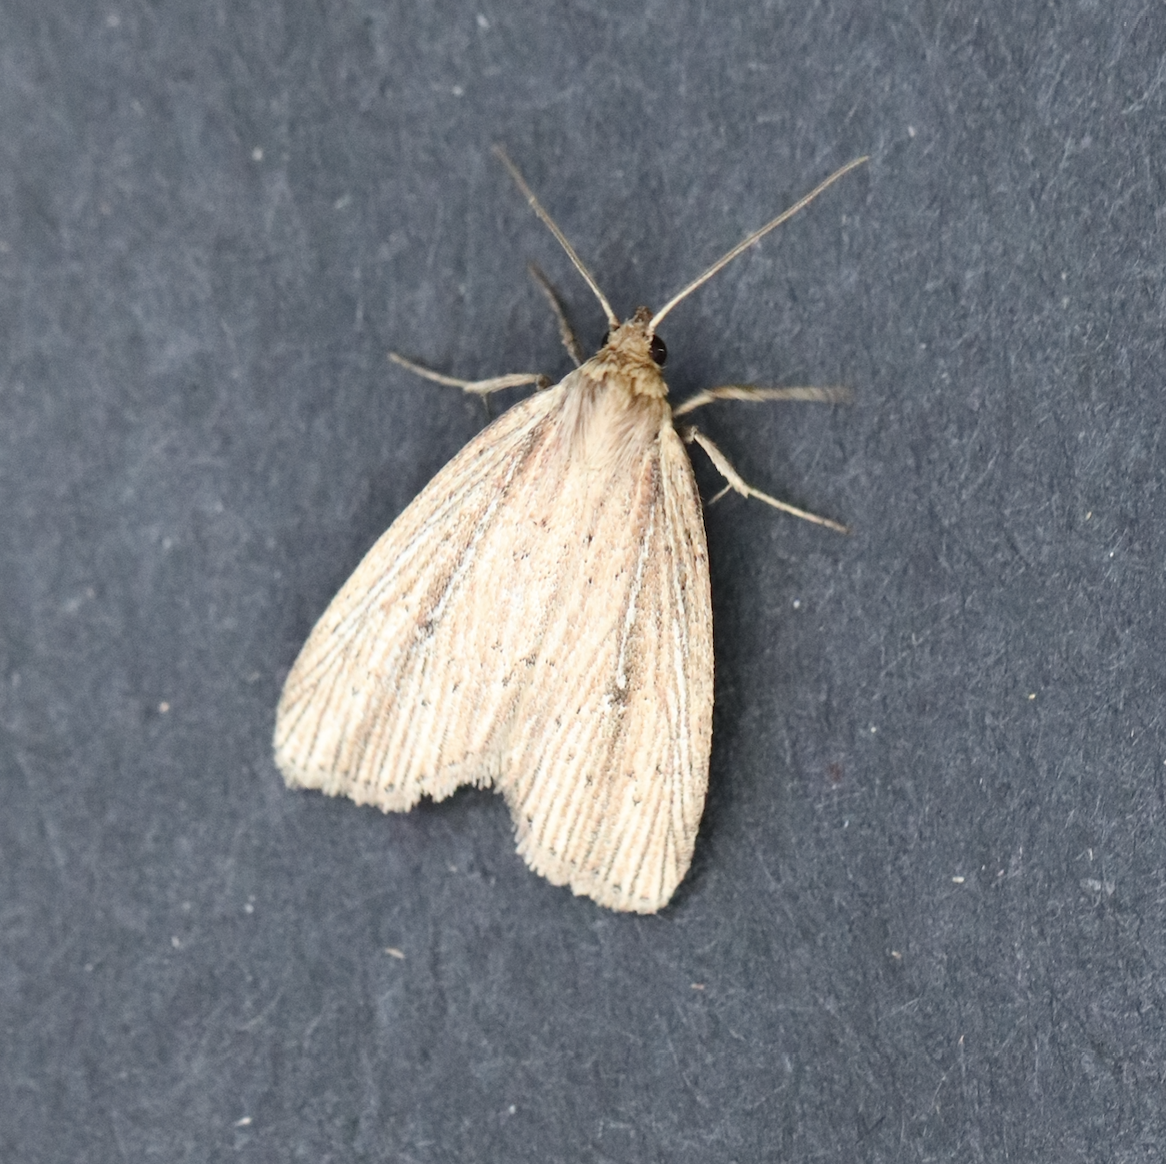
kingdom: Animalia
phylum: Arthropoda
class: Insecta
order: Lepidoptera
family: Noctuidae
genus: Photedes
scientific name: Photedes defecta
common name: Narrow-winged borer moth
